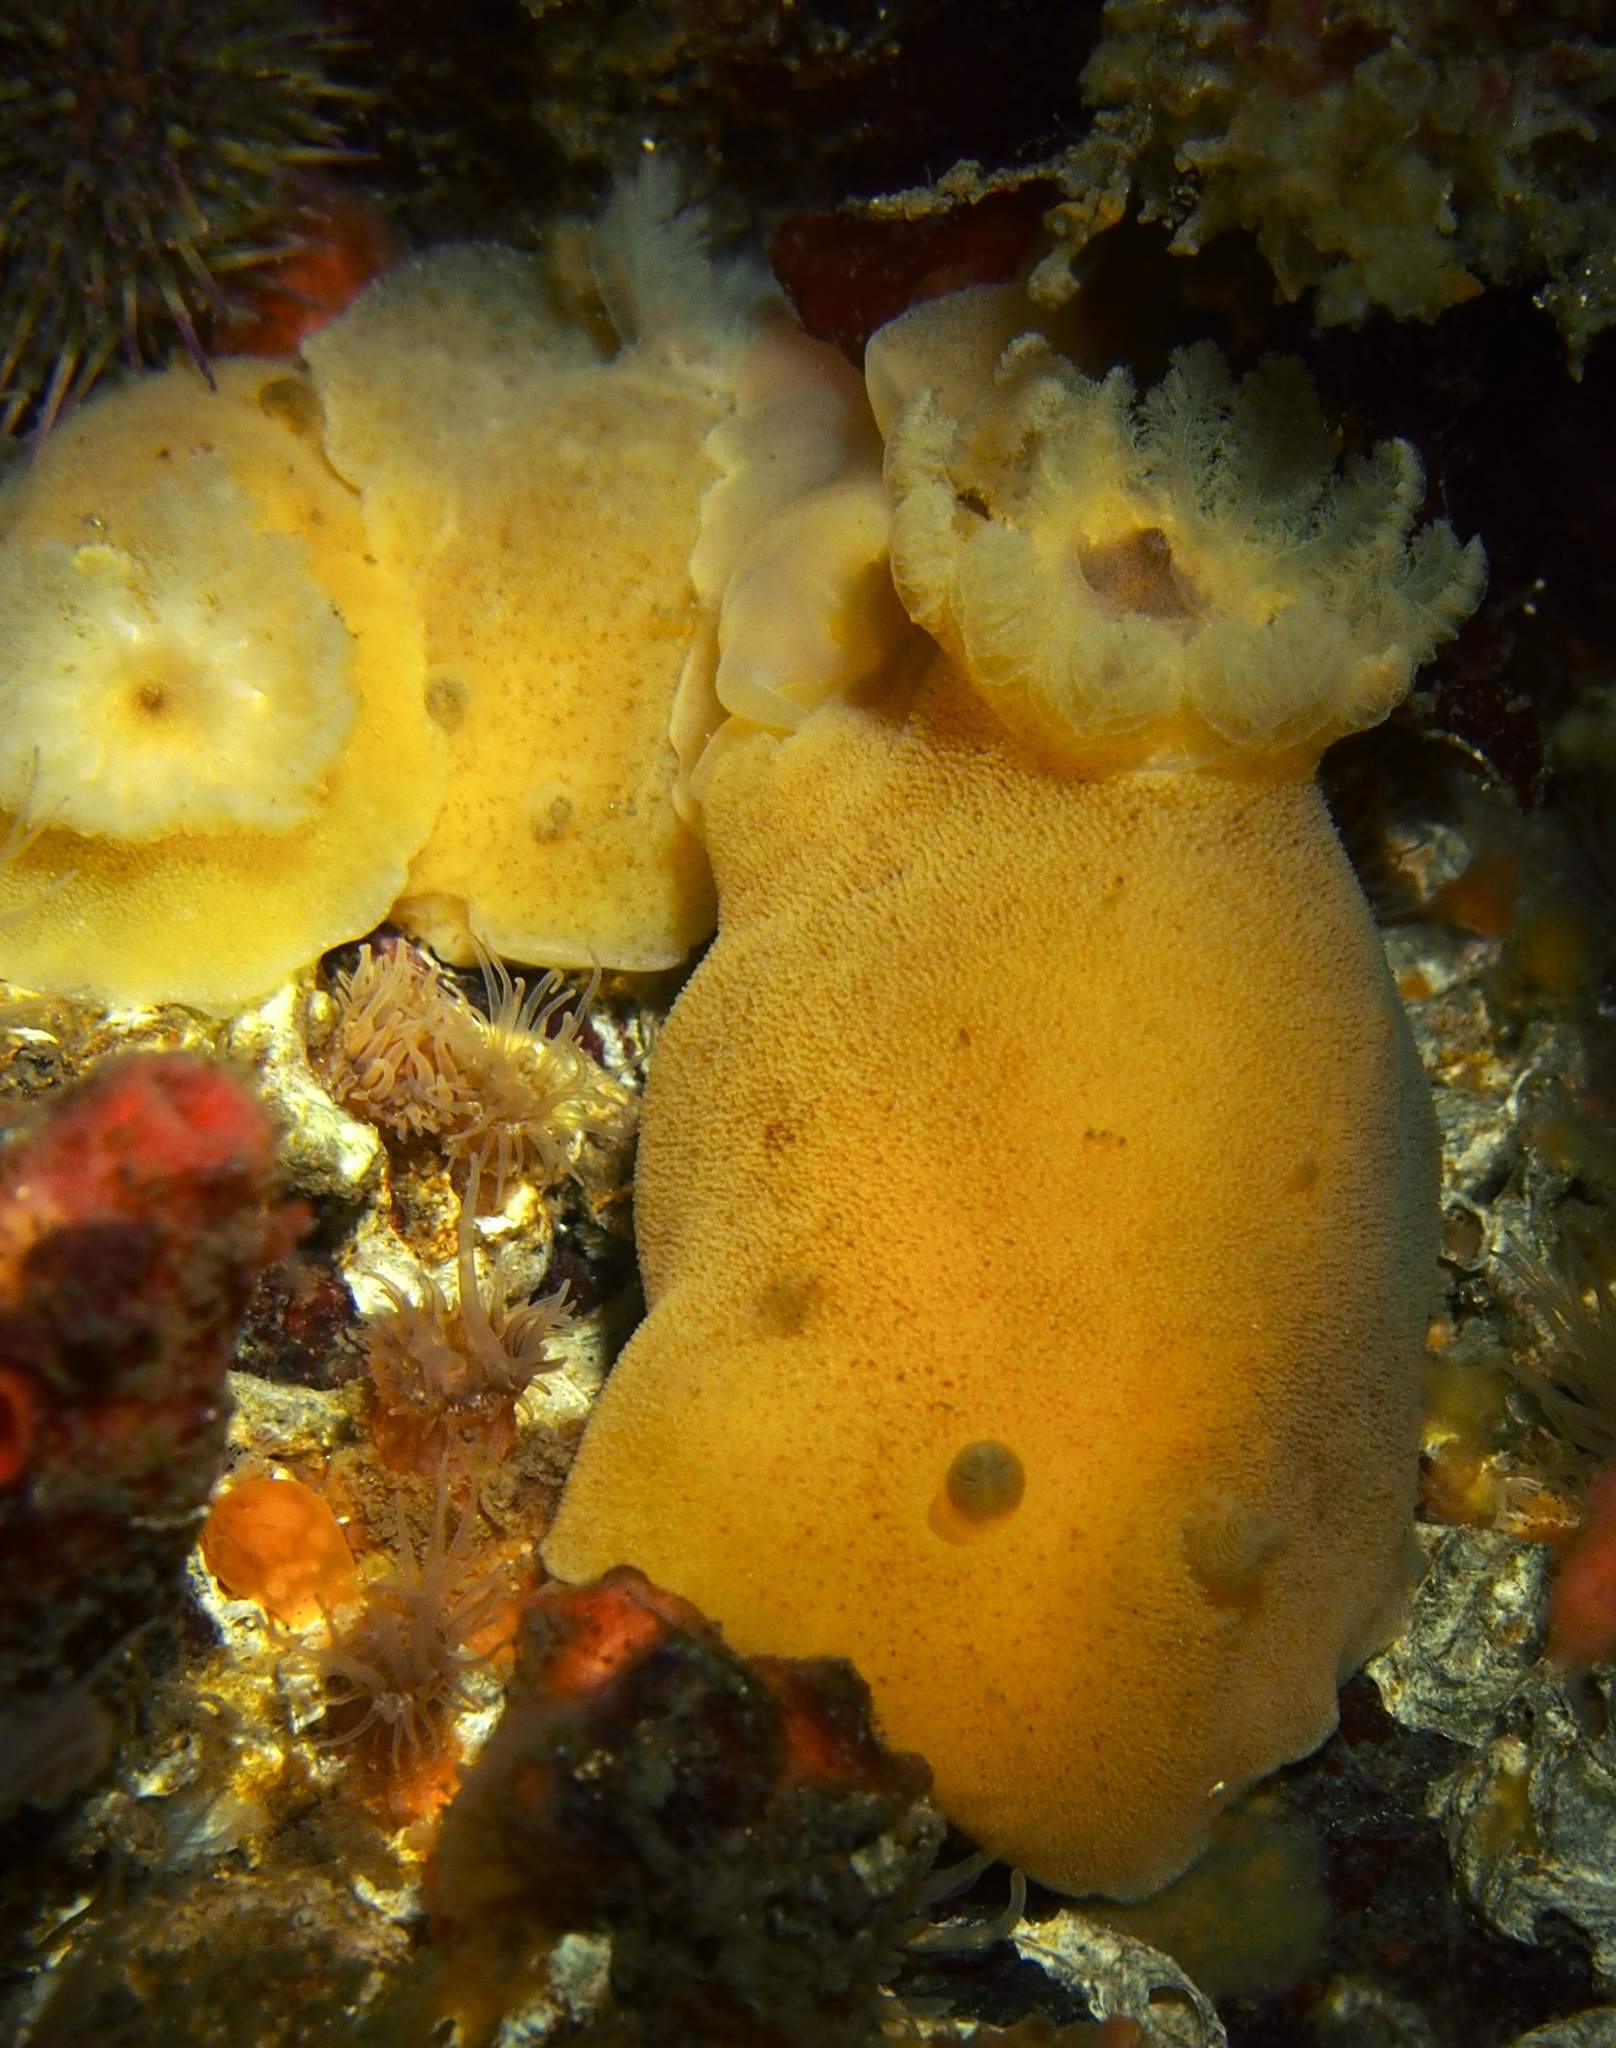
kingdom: Animalia
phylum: Mollusca
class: Gastropoda
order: Nudibranchia
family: Discodorididae
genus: Jorunna
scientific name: Jorunna tomentosa
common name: Grey sea slug
